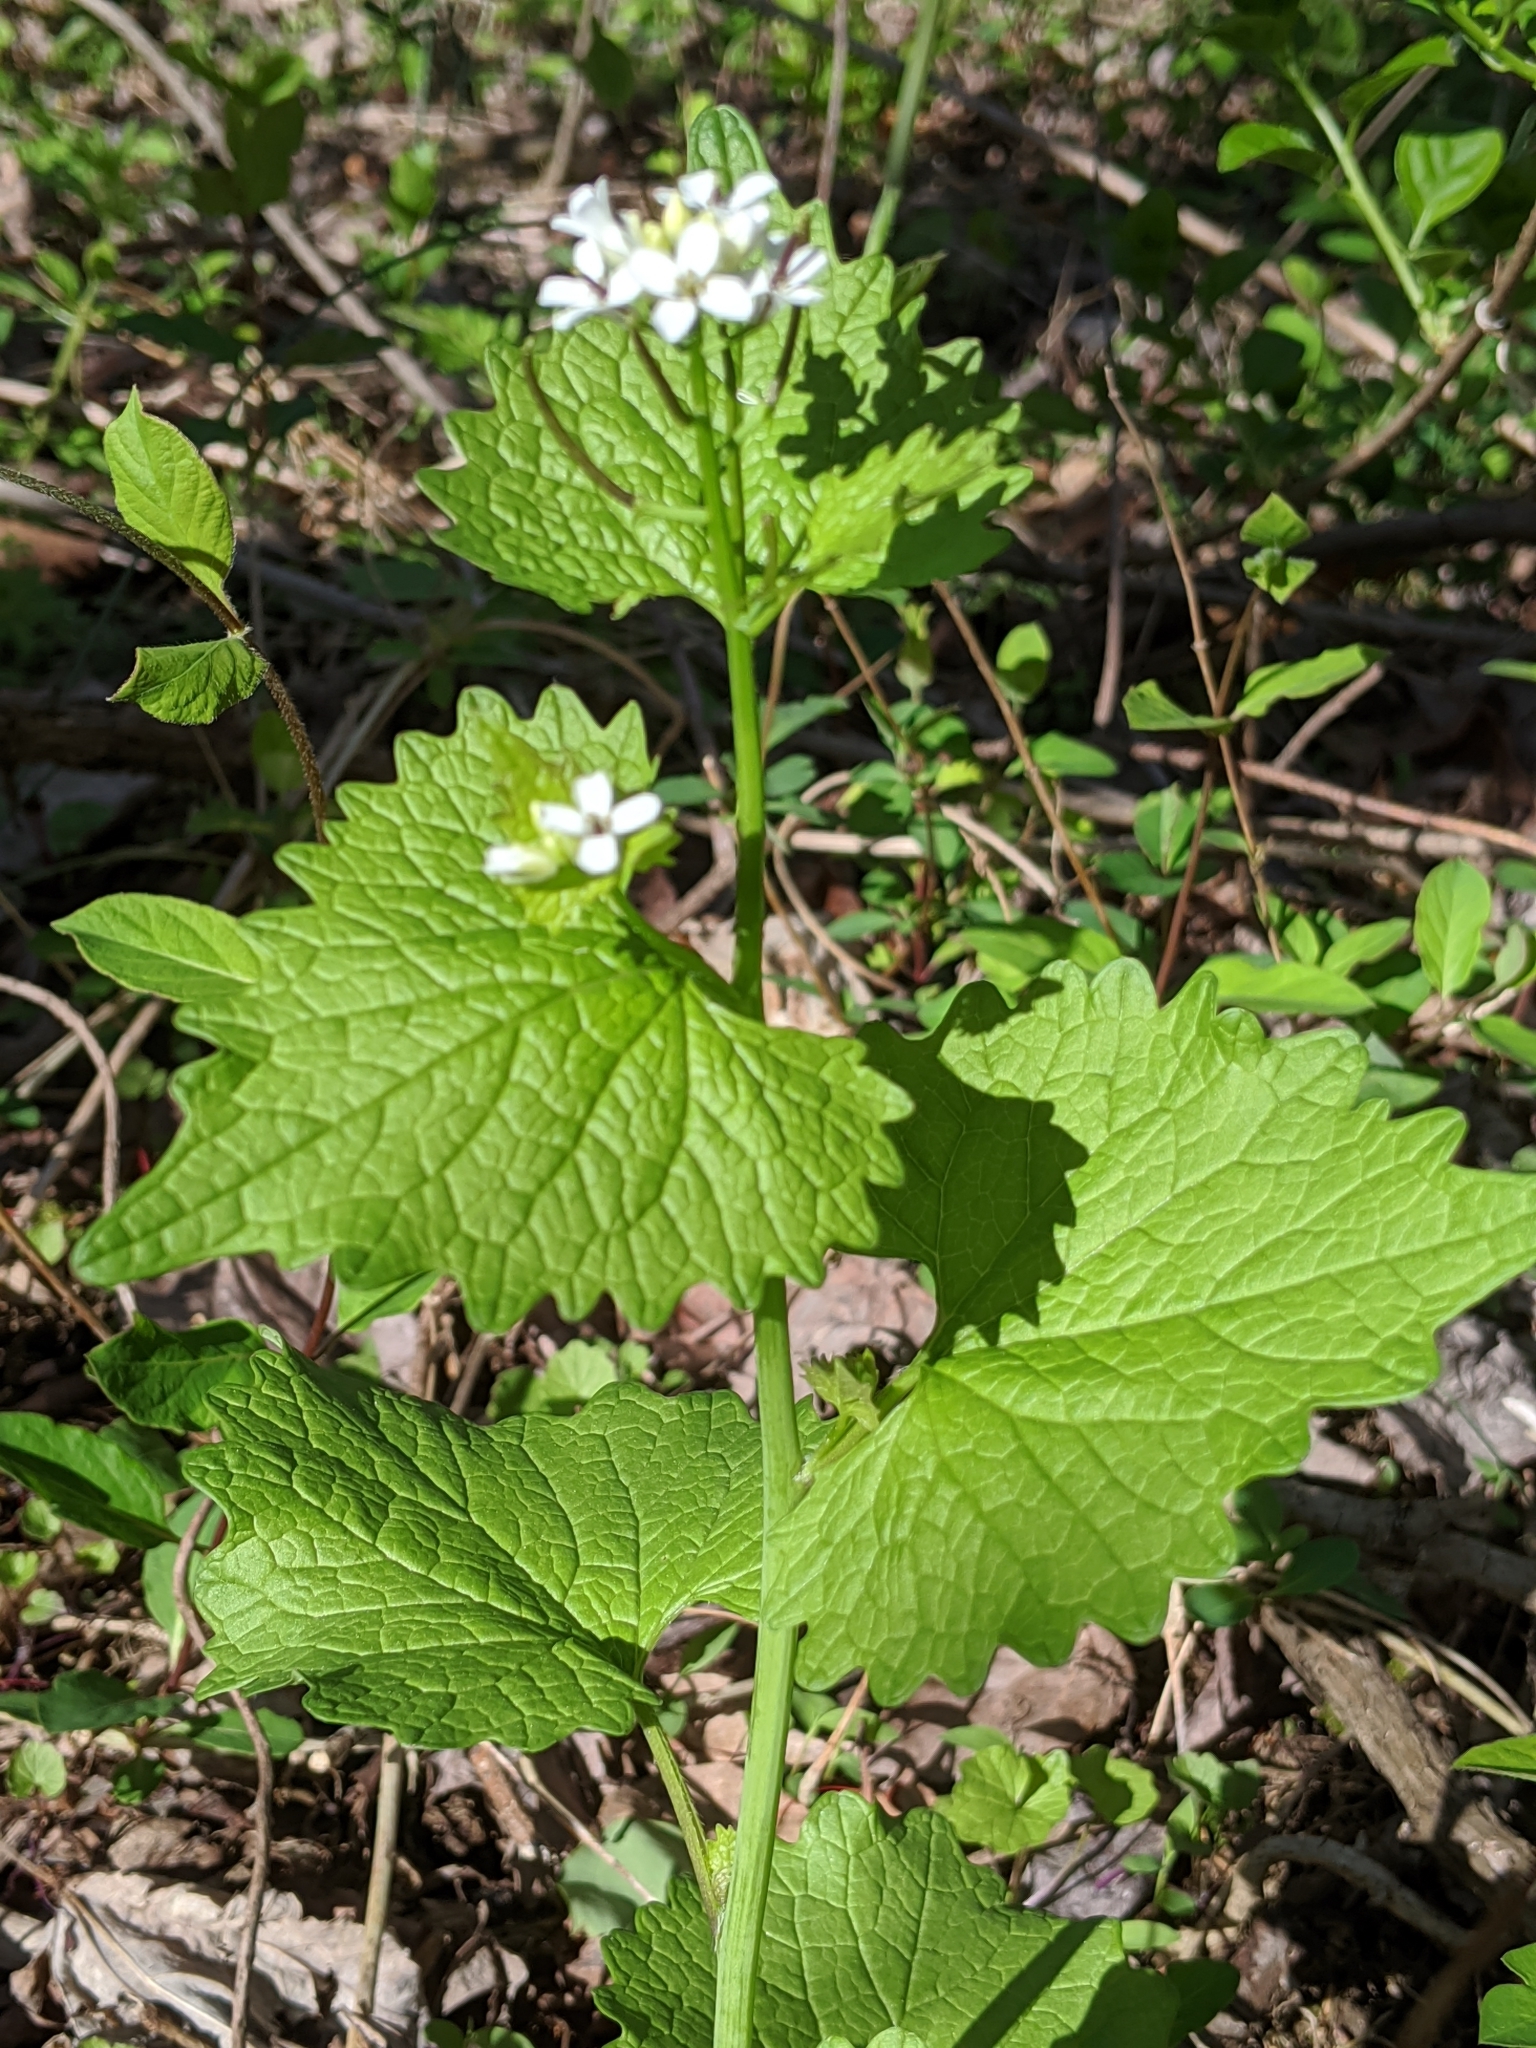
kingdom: Plantae
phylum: Tracheophyta
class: Magnoliopsida
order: Brassicales
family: Brassicaceae
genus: Alliaria
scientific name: Alliaria petiolata
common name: Garlic mustard
